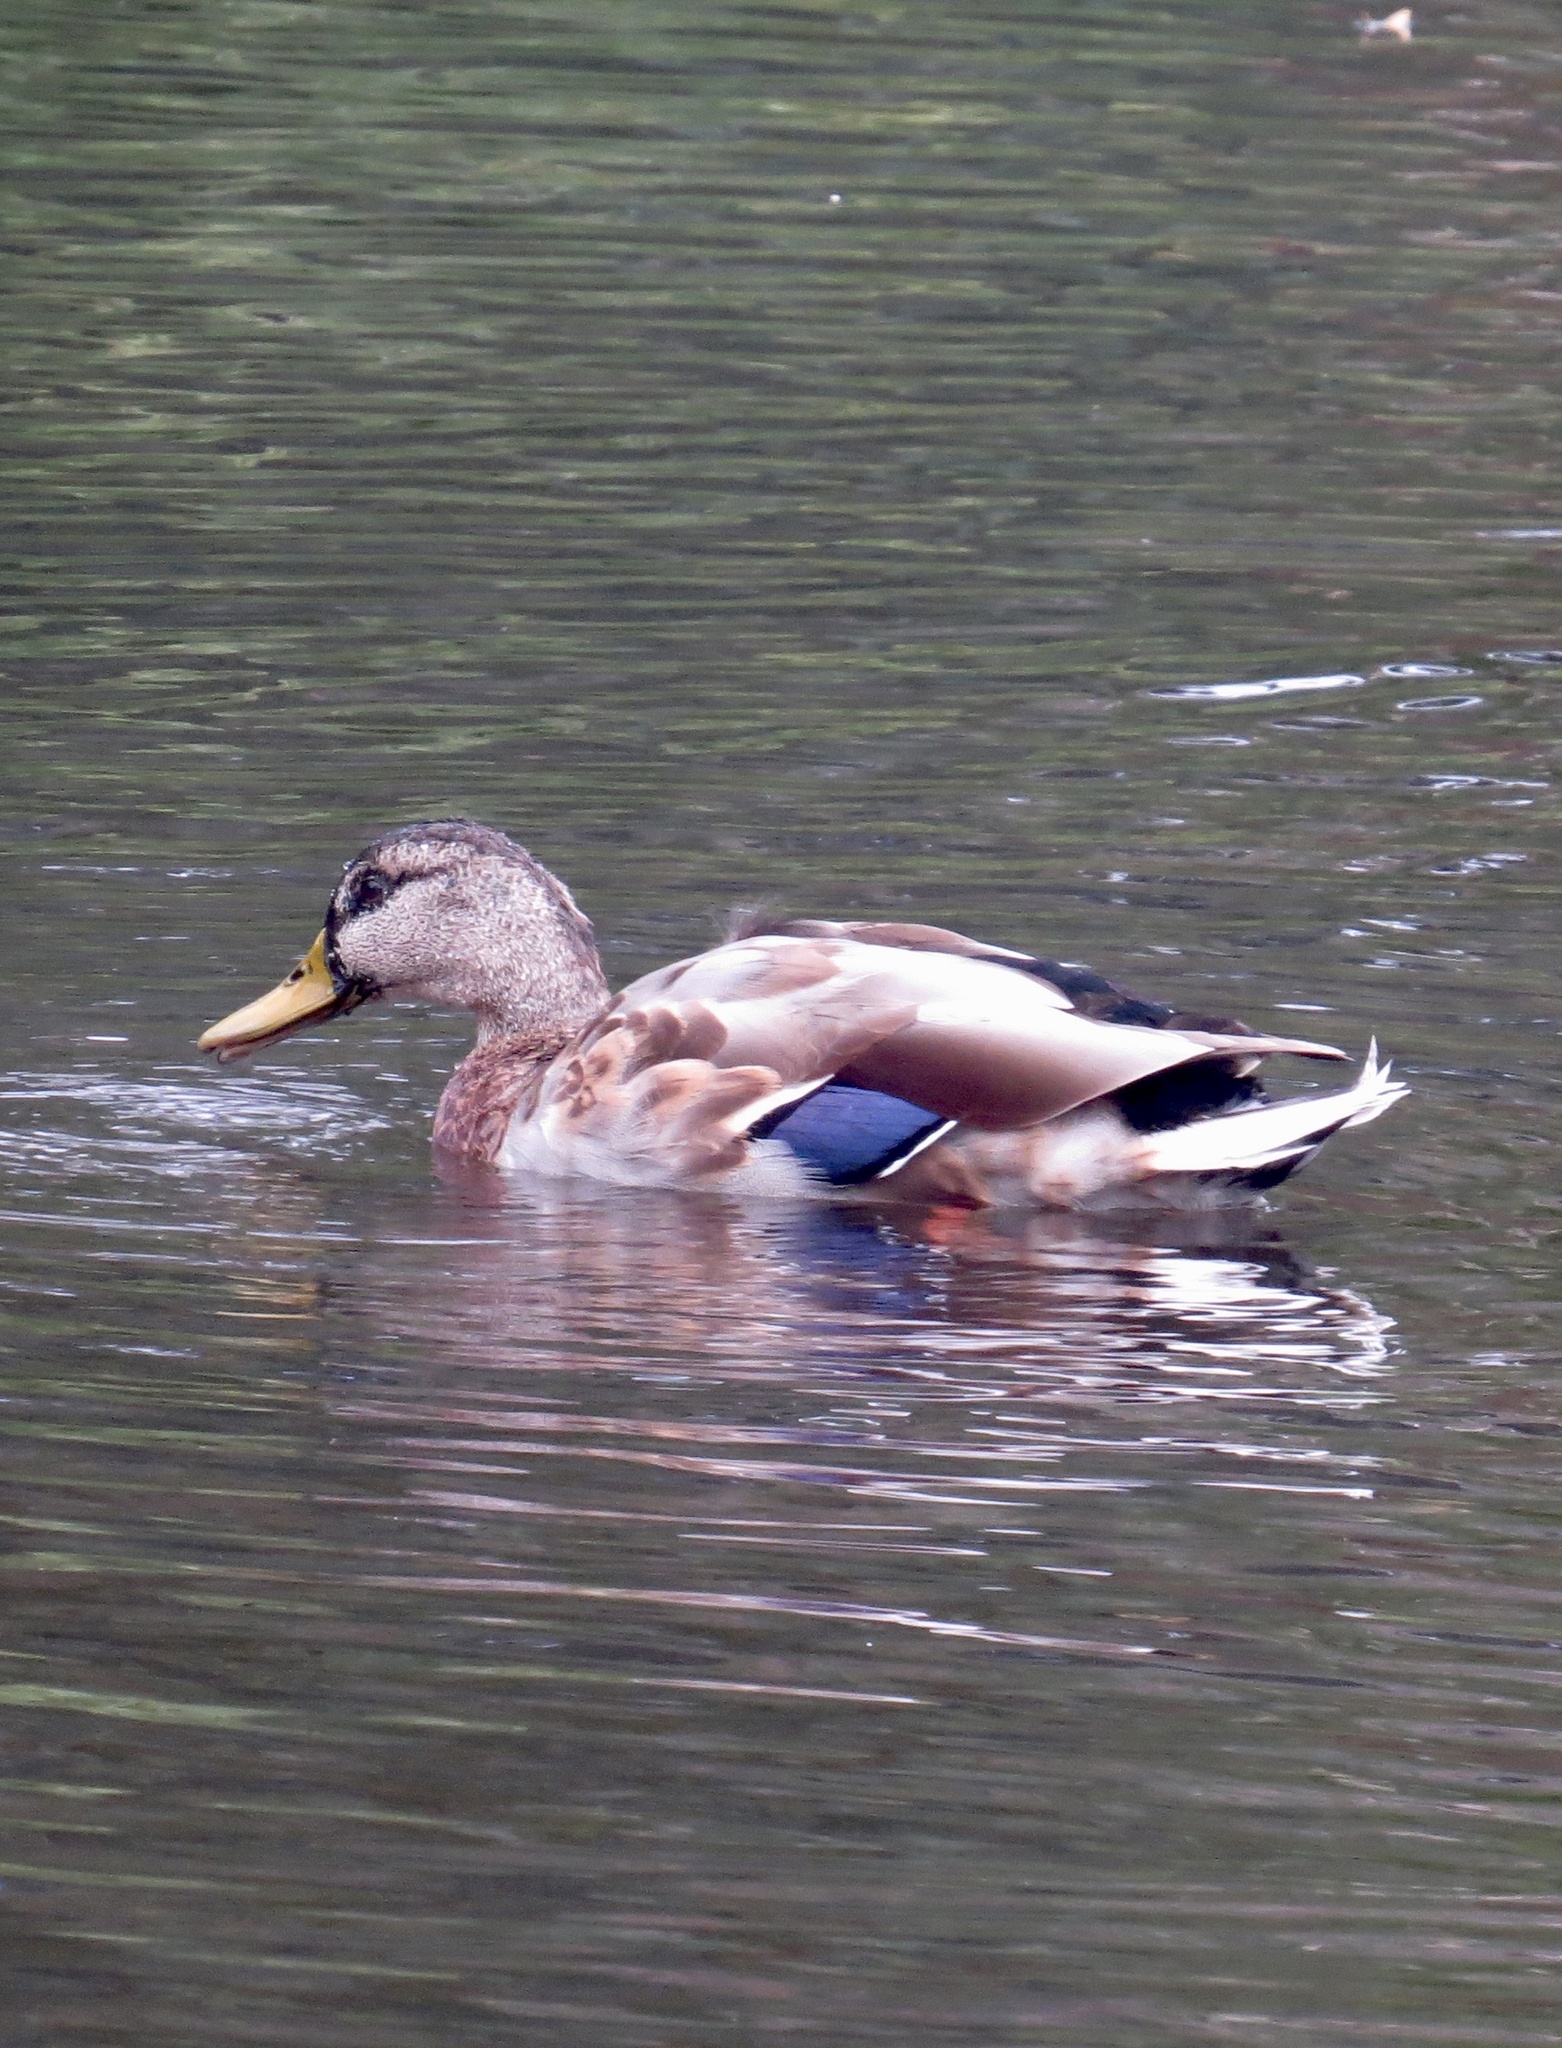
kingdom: Animalia
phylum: Chordata
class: Aves
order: Anseriformes
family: Anatidae
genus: Anas
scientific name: Anas platyrhynchos
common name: Mallard
